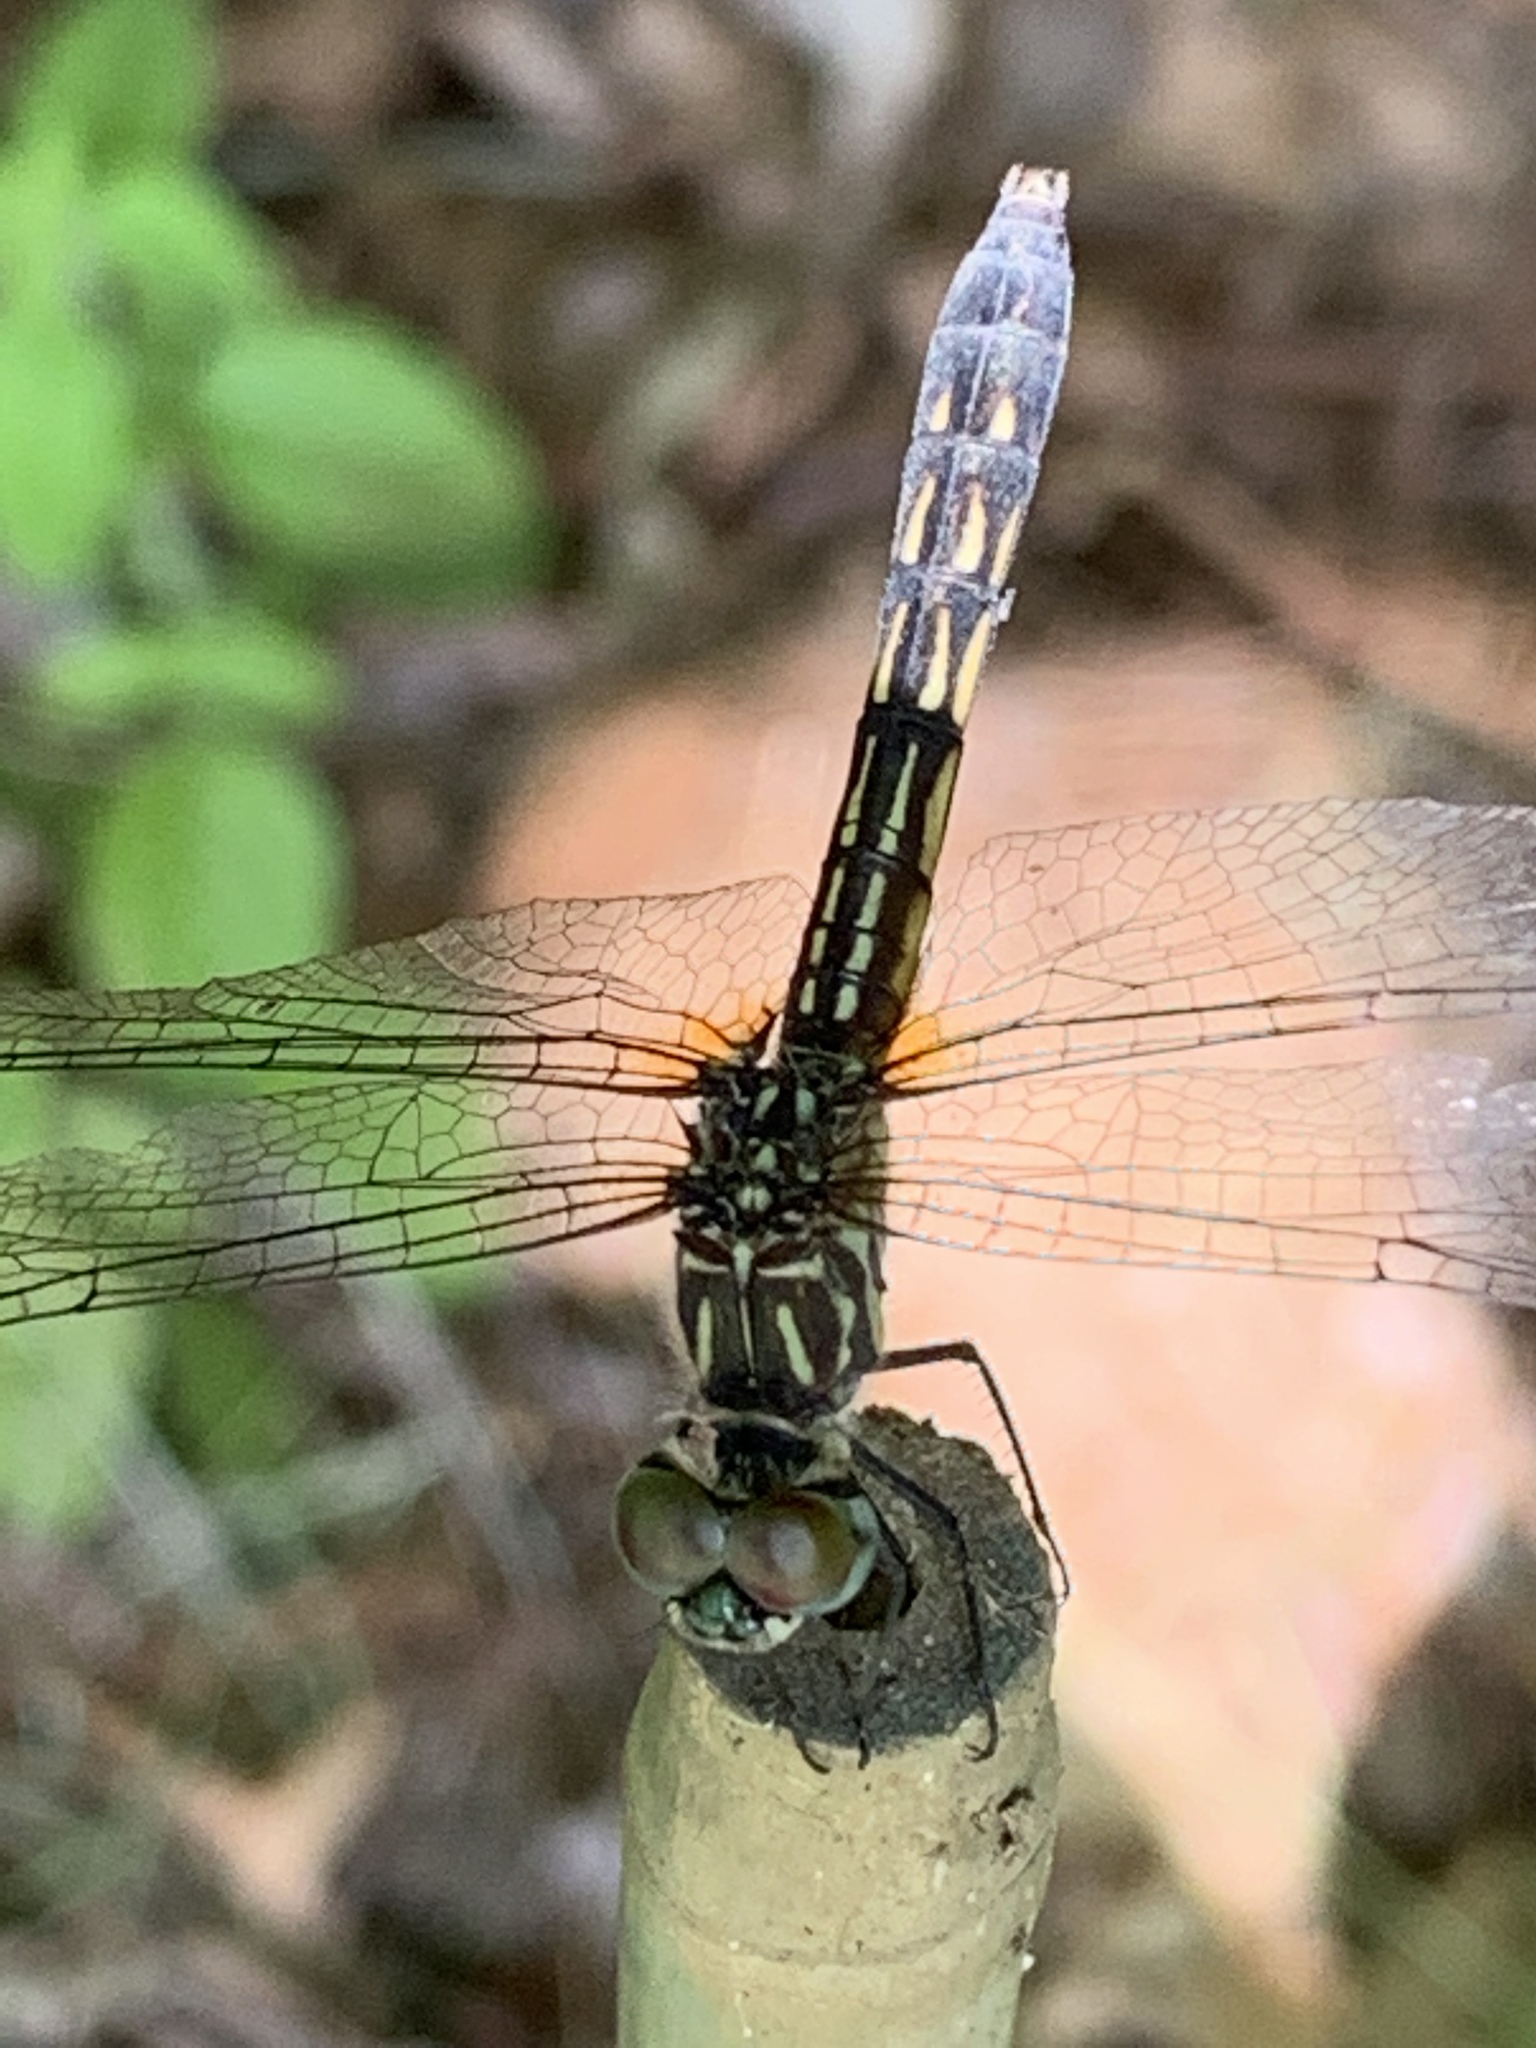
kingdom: Animalia
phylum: Arthropoda
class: Insecta
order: Odonata
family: Libellulidae
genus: Pachydiplax
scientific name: Pachydiplax longipennis
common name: Blue dasher
